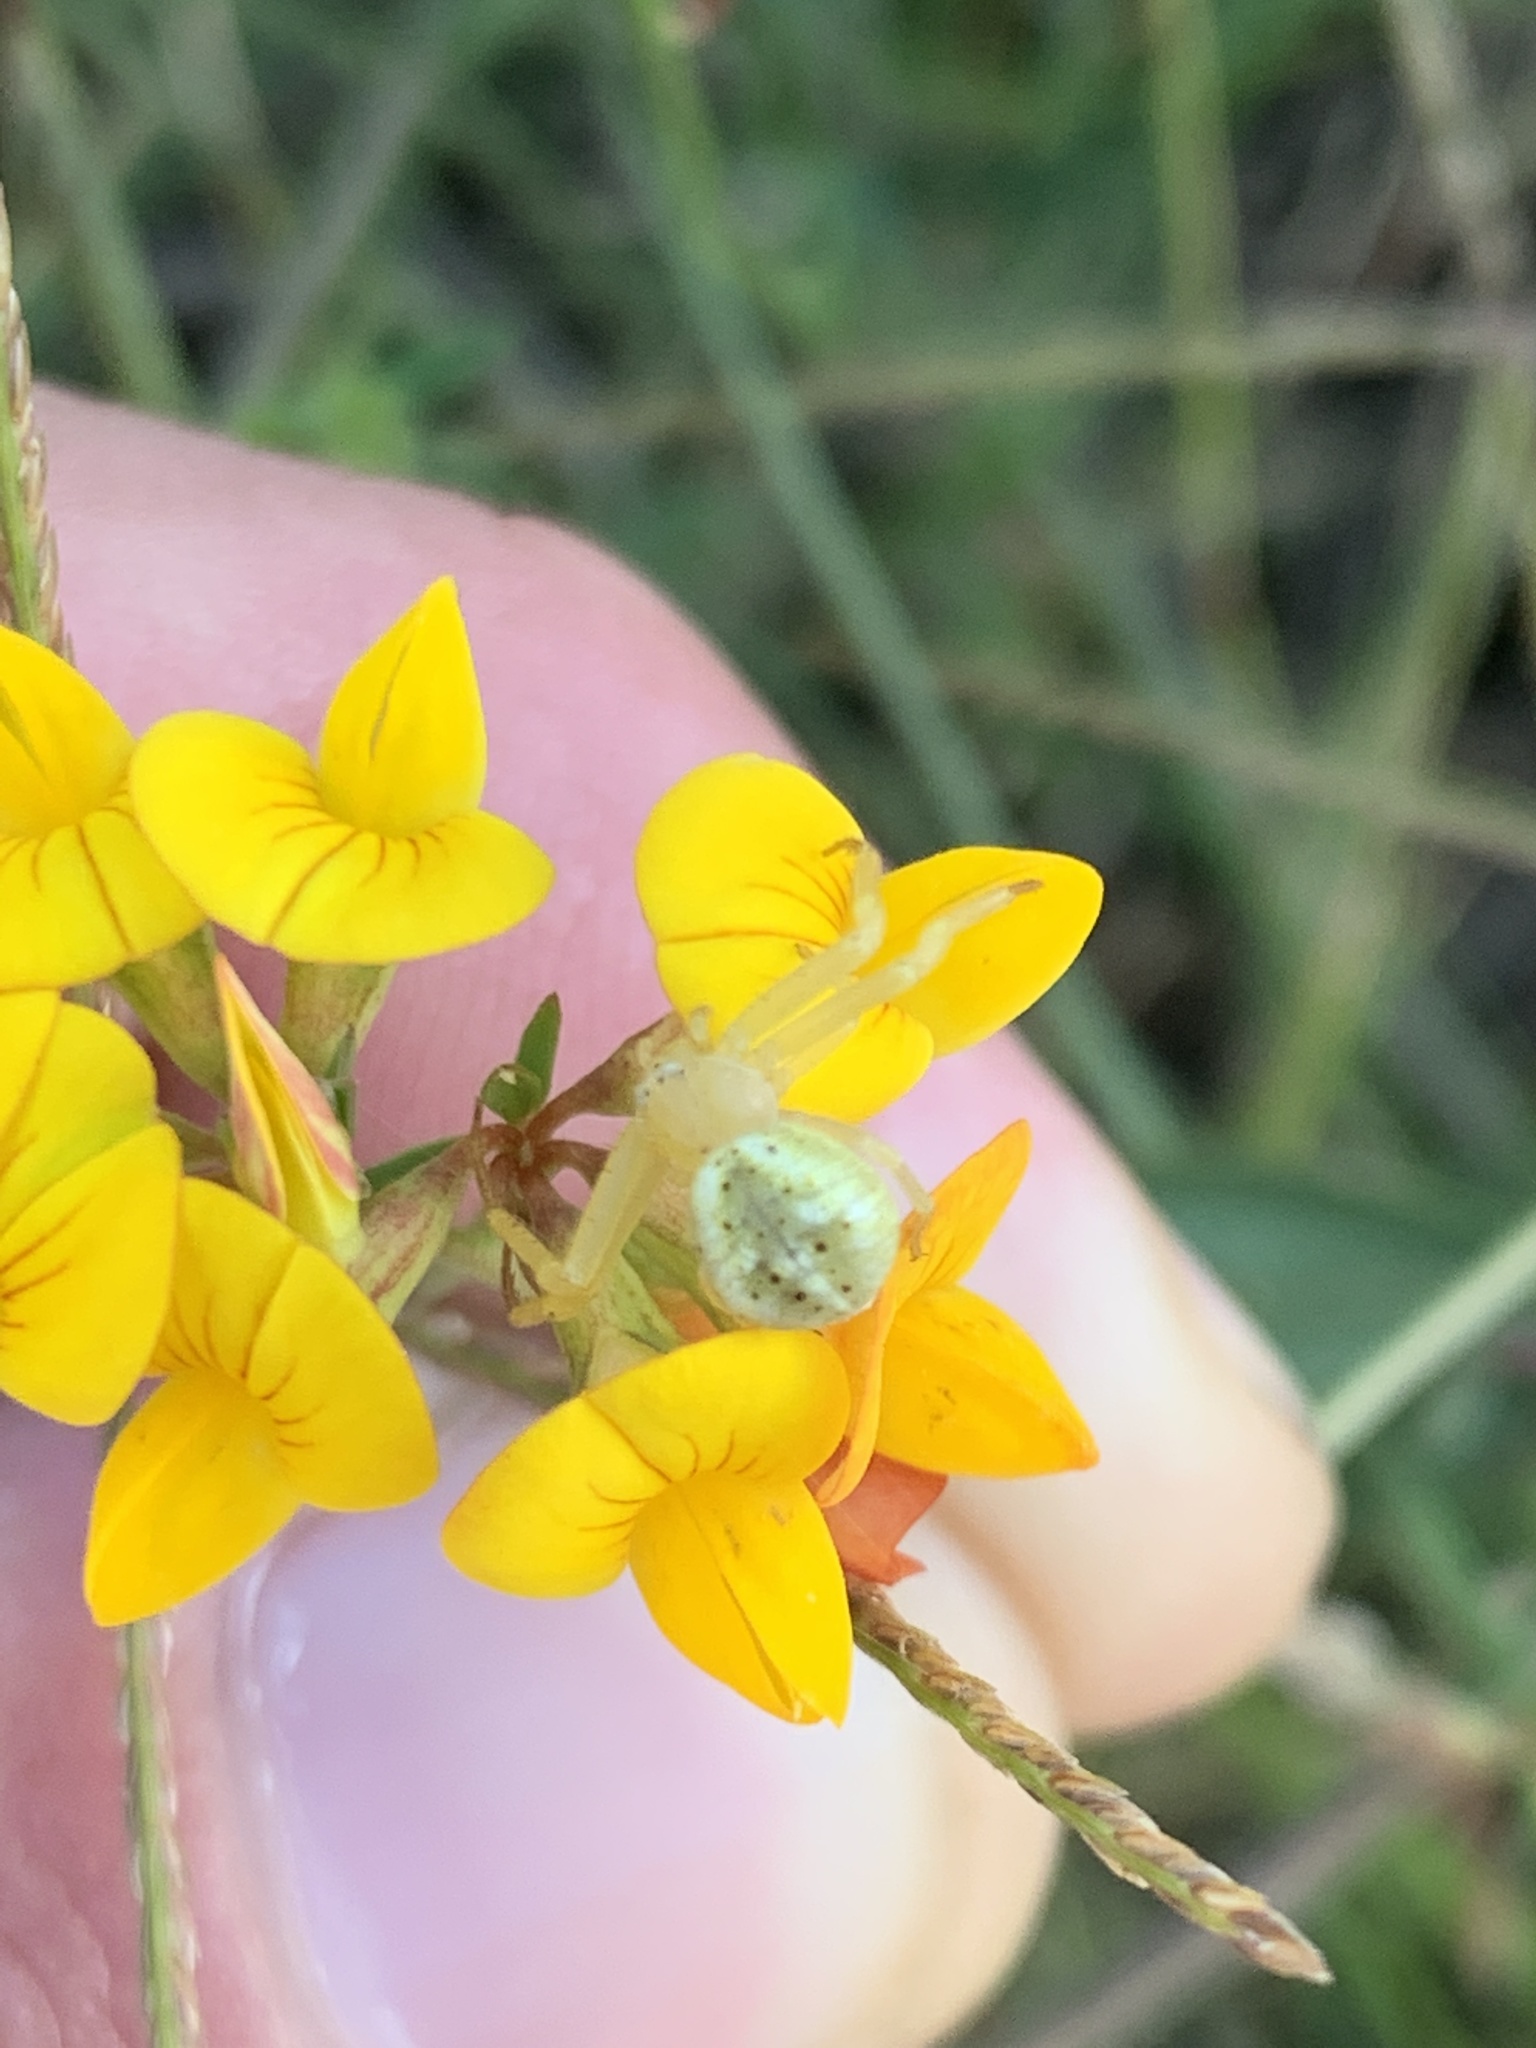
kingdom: Animalia
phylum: Arthropoda
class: Arachnida
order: Araneae
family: Thomisidae
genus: Misumenops
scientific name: Misumenops
